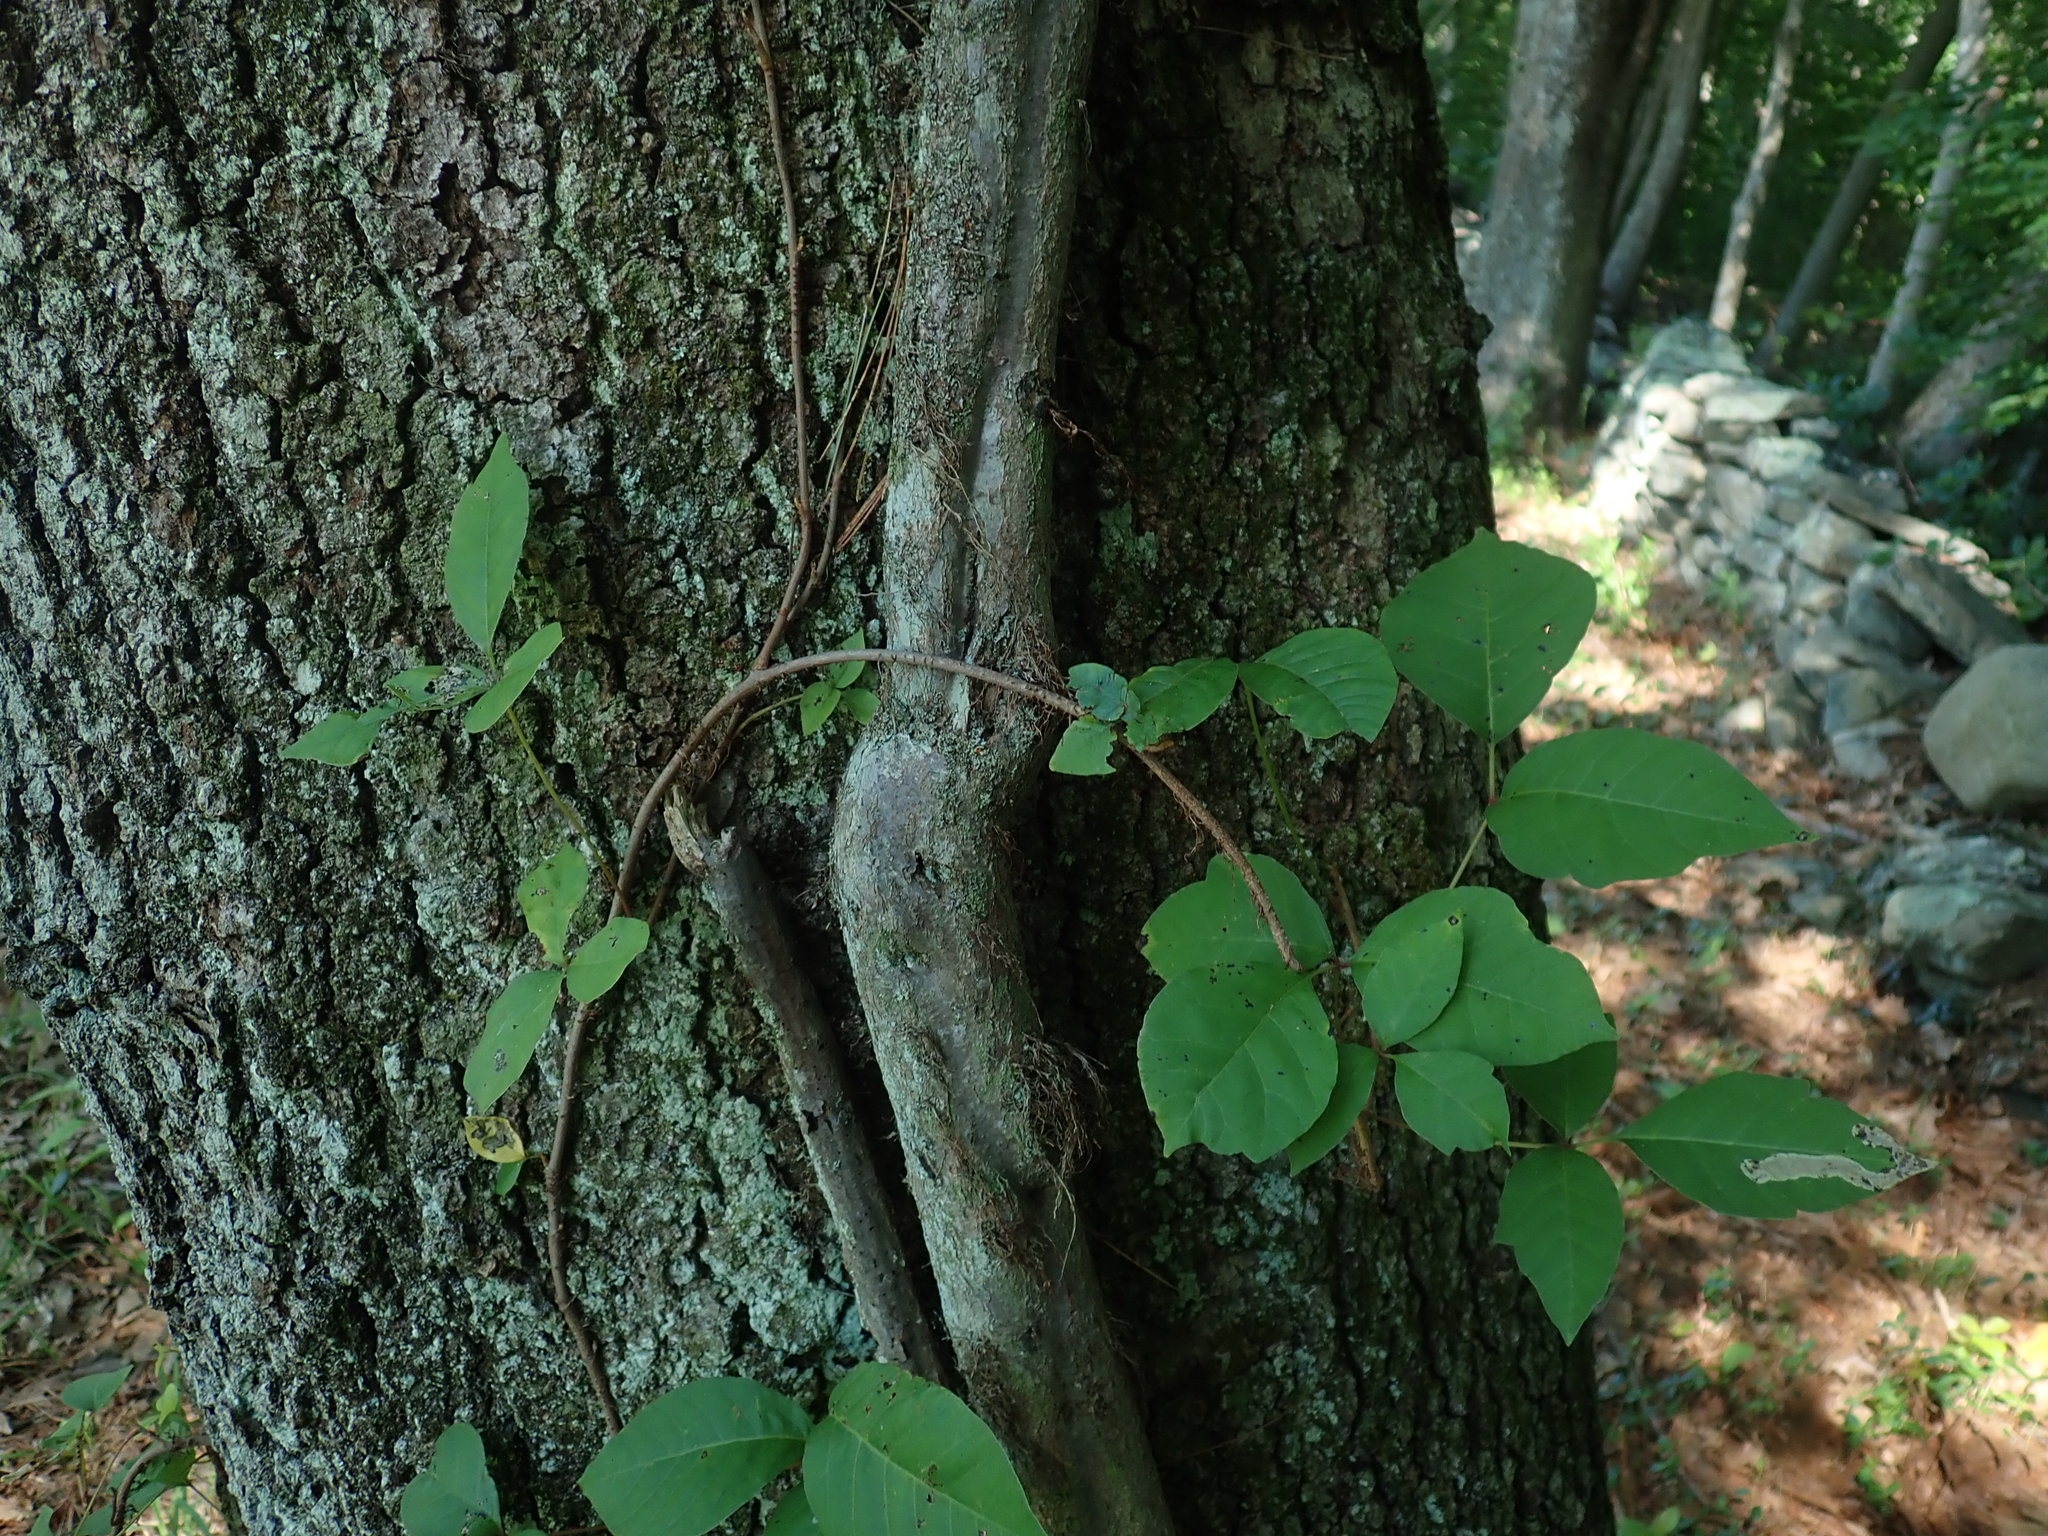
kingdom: Plantae
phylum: Tracheophyta
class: Magnoliopsida
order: Sapindales
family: Anacardiaceae
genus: Toxicodendron
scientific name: Toxicodendron radicans
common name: Poison ivy
